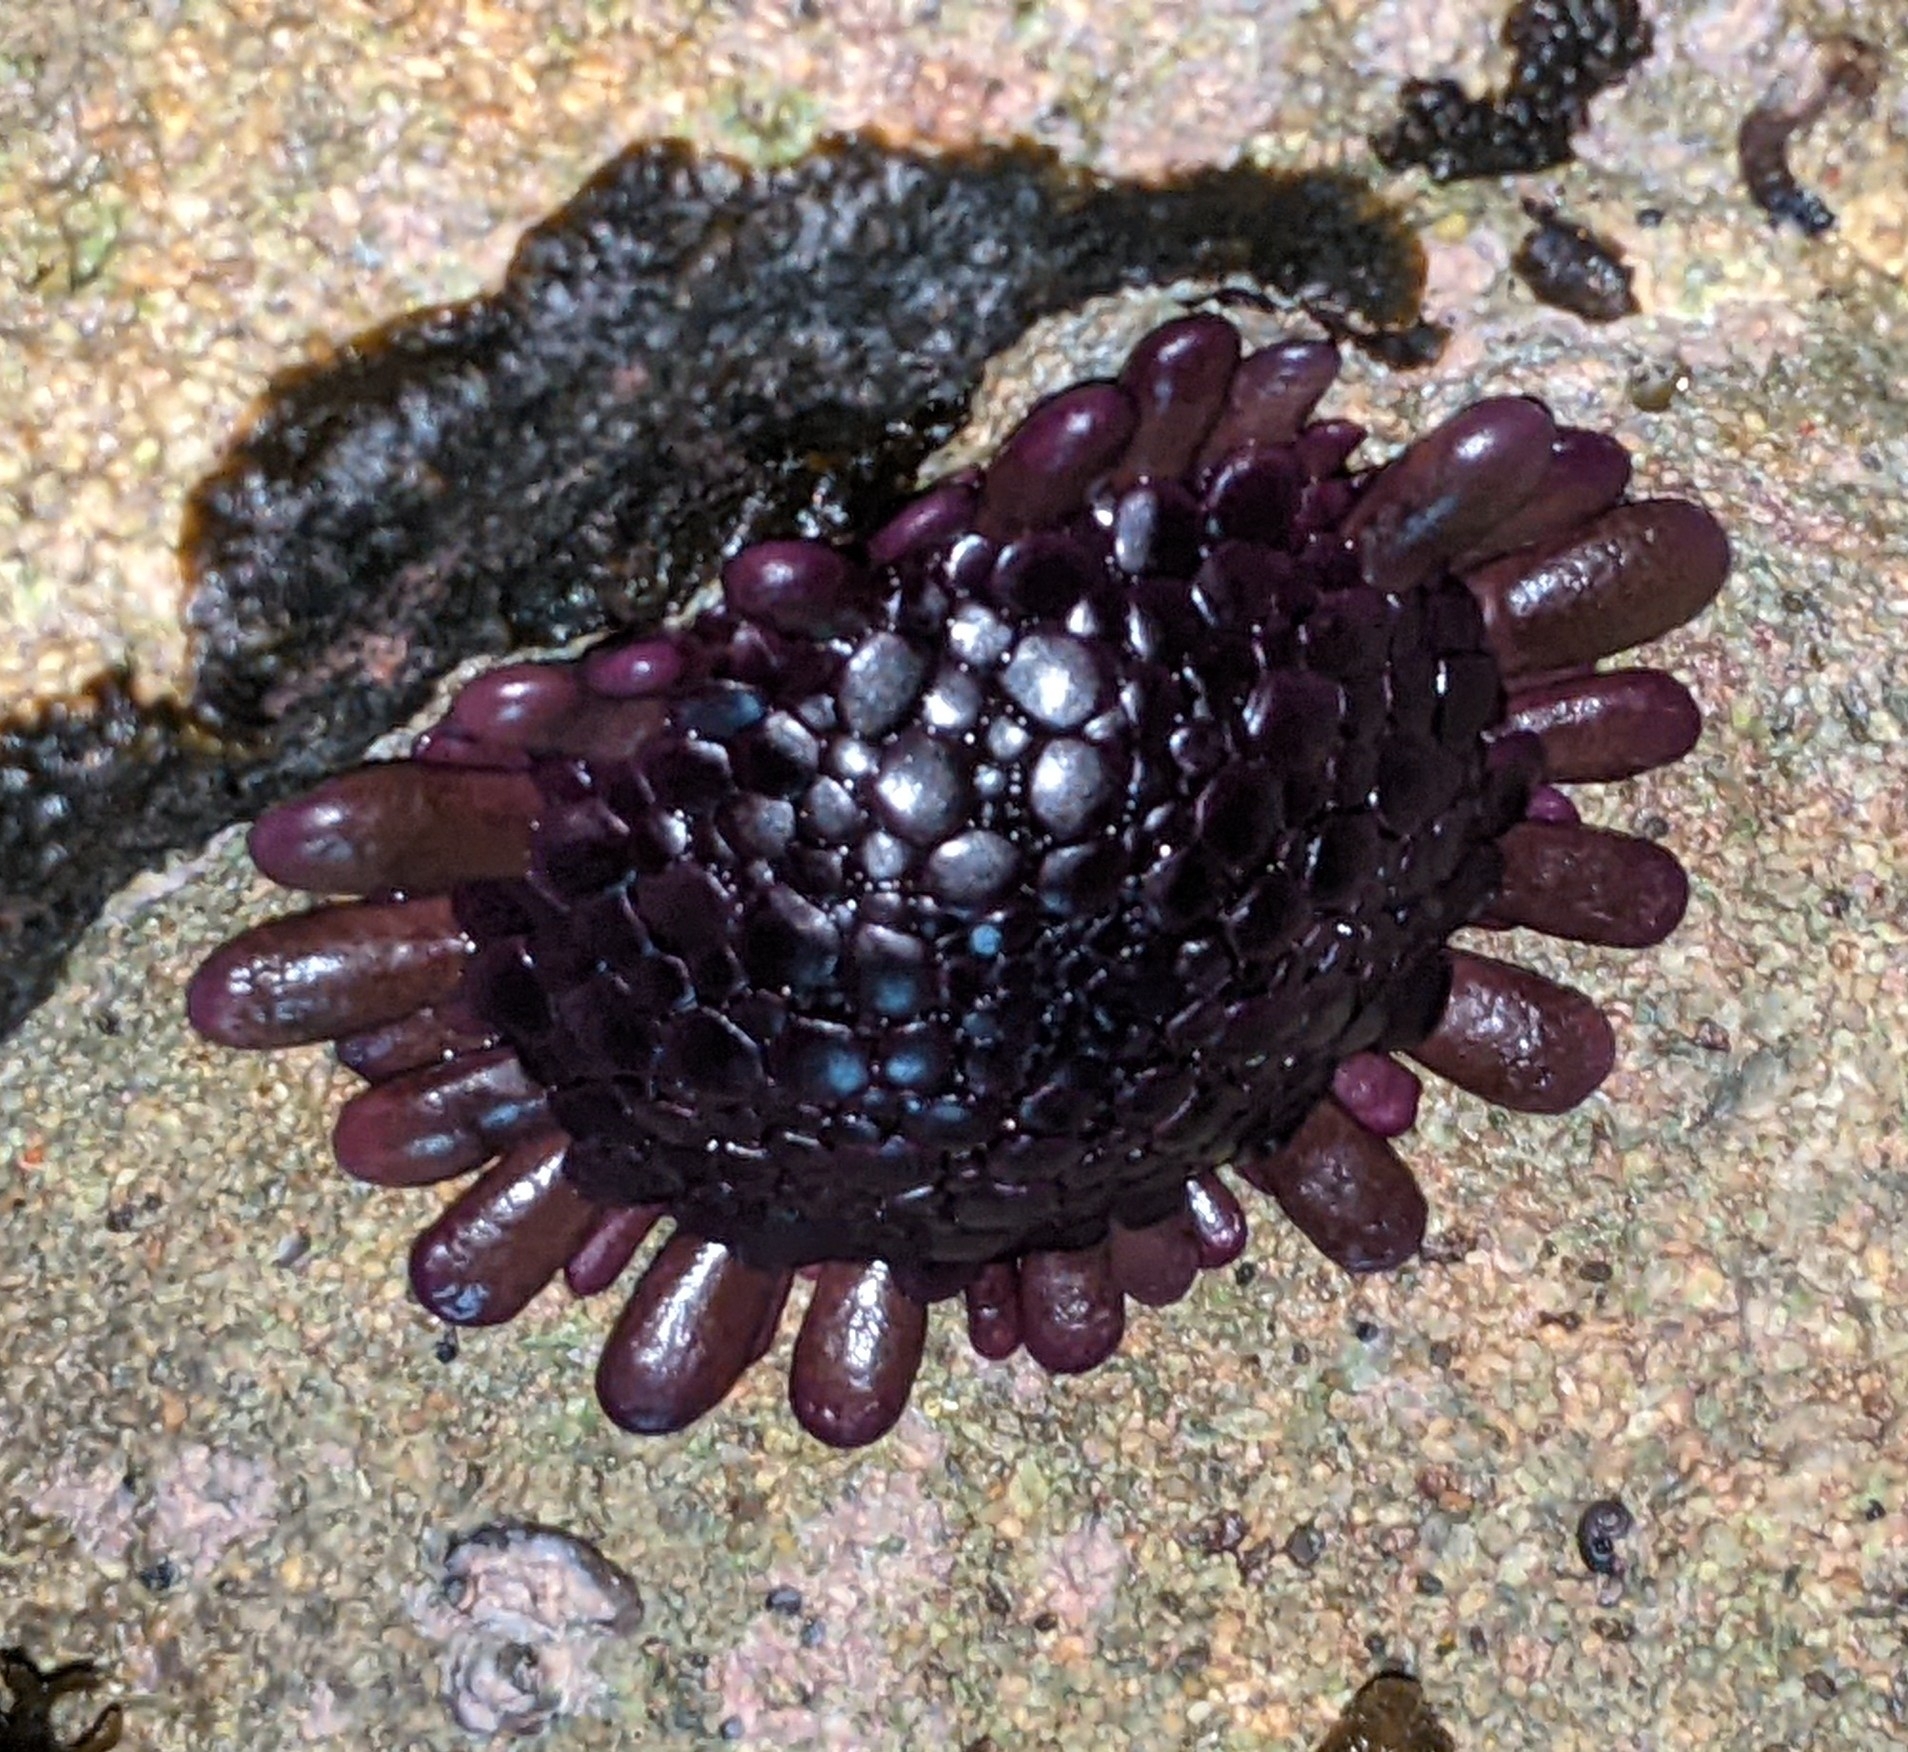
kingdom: Animalia
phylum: Echinodermata
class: Echinoidea
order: Camarodonta
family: Echinometridae
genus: Colobocentrotus
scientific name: Colobocentrotus atratus
